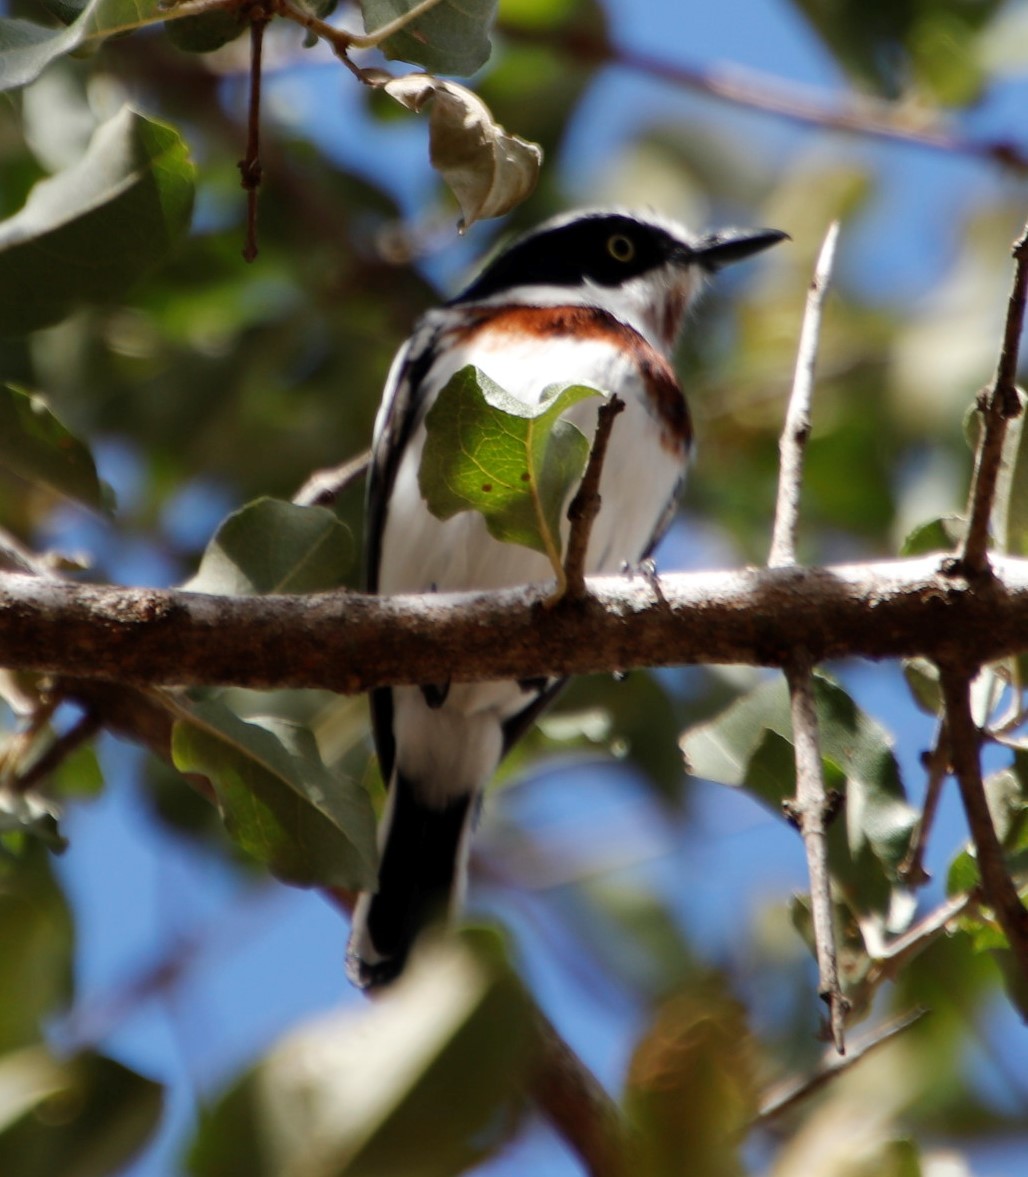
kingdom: Animalia
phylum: Chordata
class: Aves
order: Passeriformes
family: Platysteiridae
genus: Batis
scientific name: Batis molitor
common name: Chinspot batis
